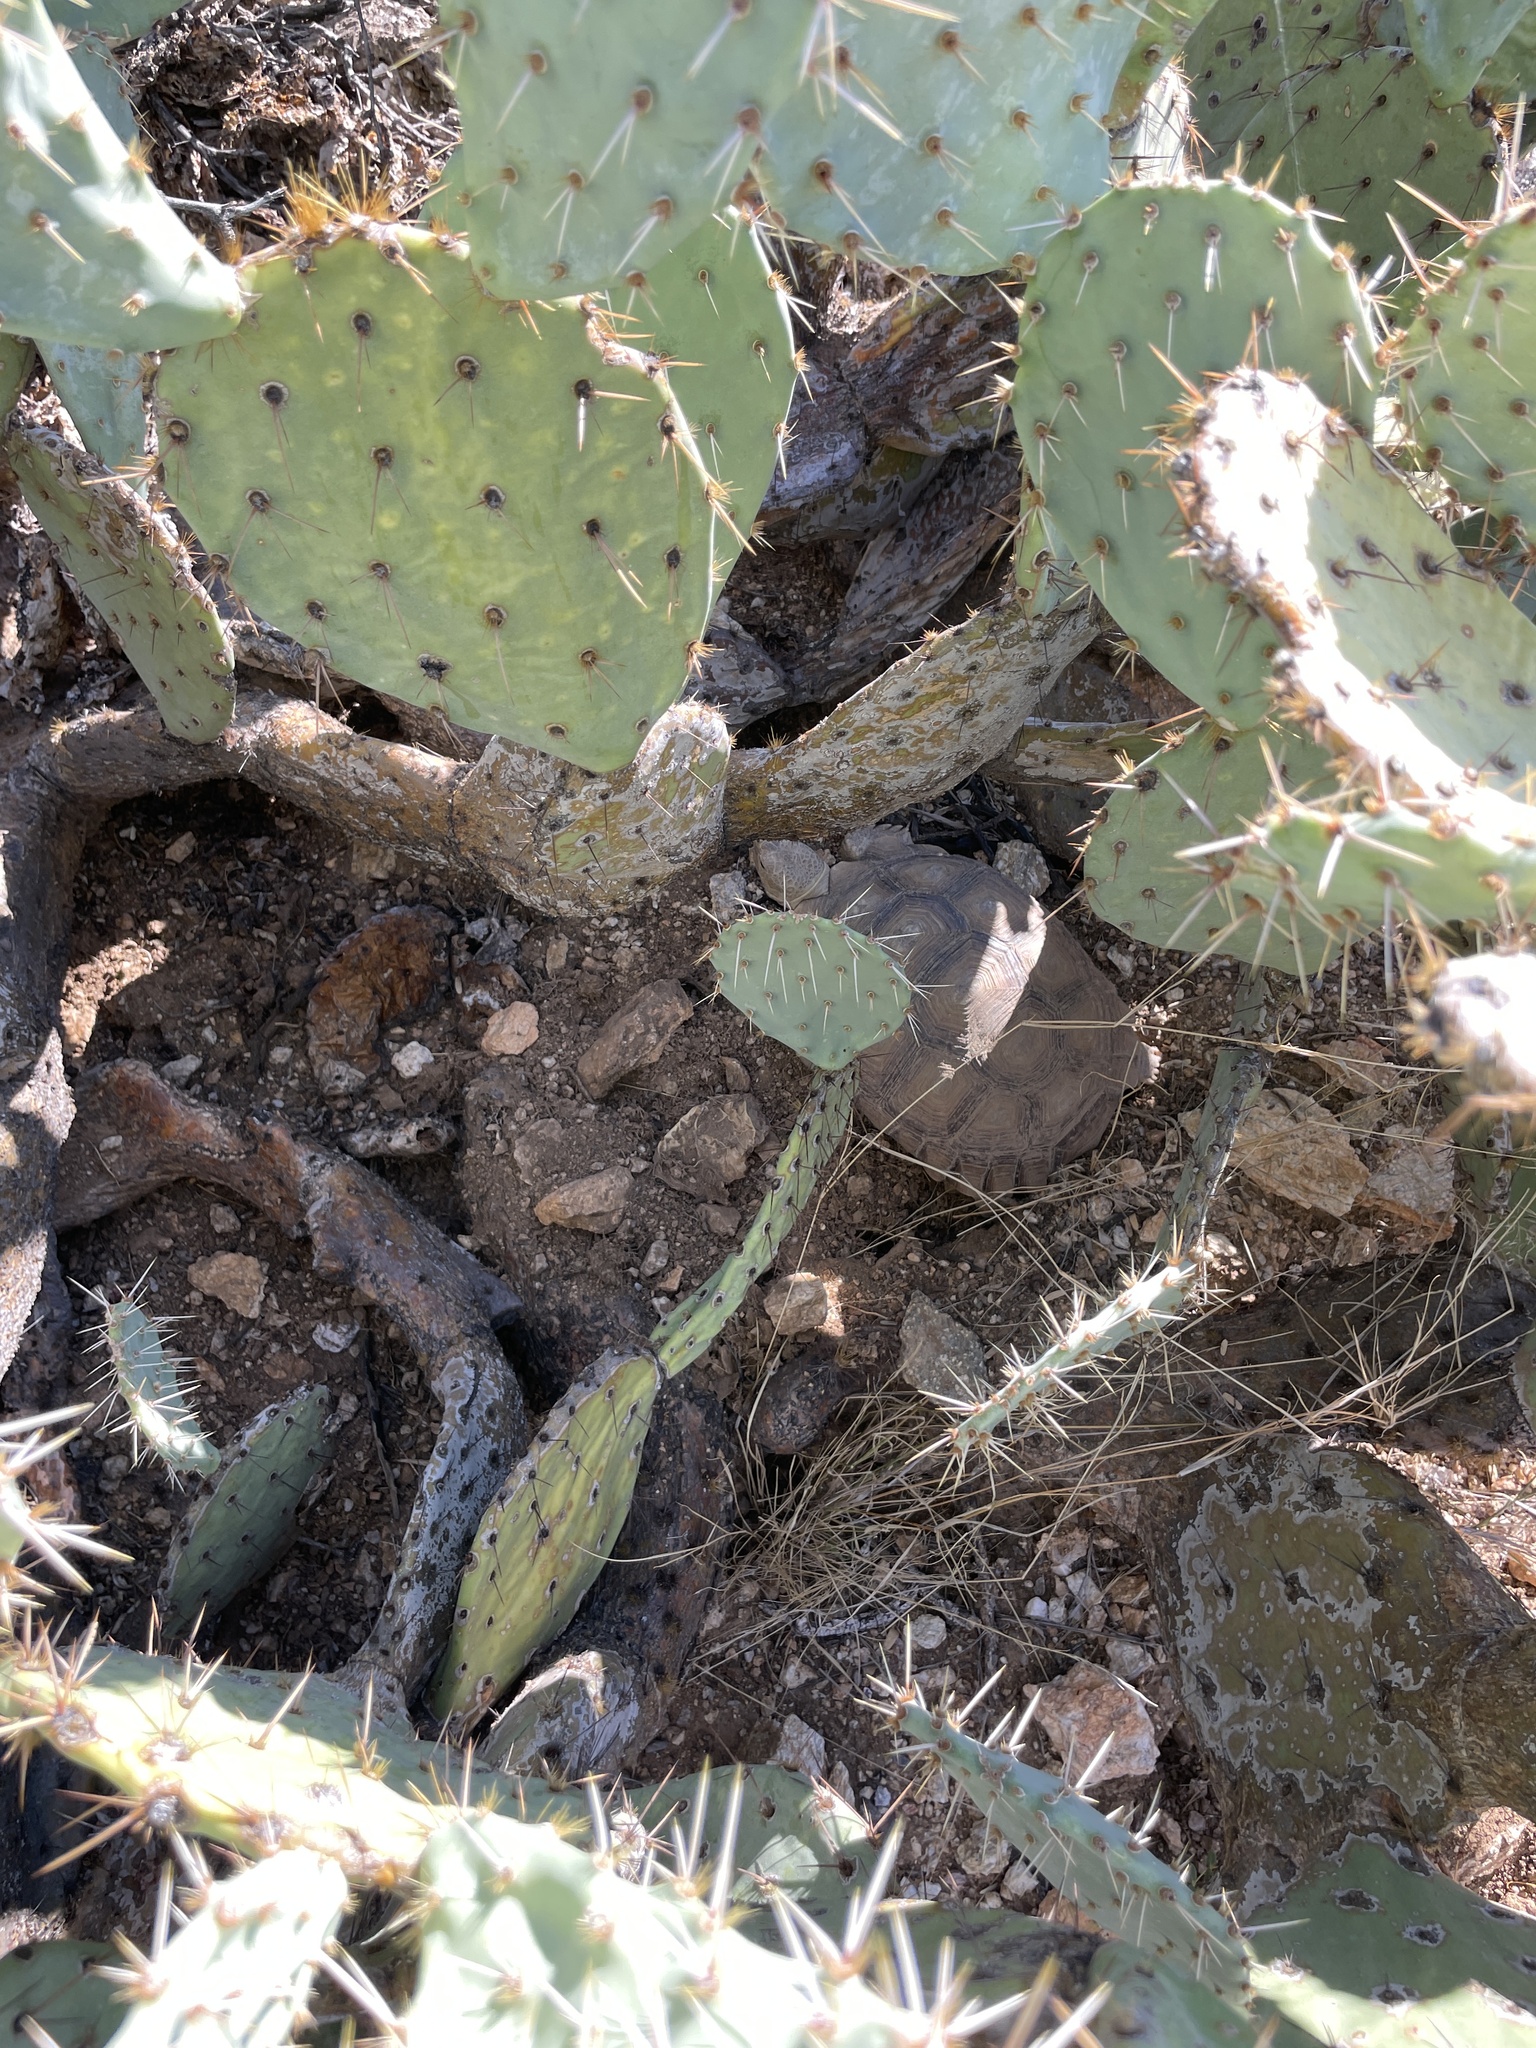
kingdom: Animalia
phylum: Chordata
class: Testudines
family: Testudinidae
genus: Gopherus
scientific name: Gopherus morafkai
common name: Sonoran desert tortoise
